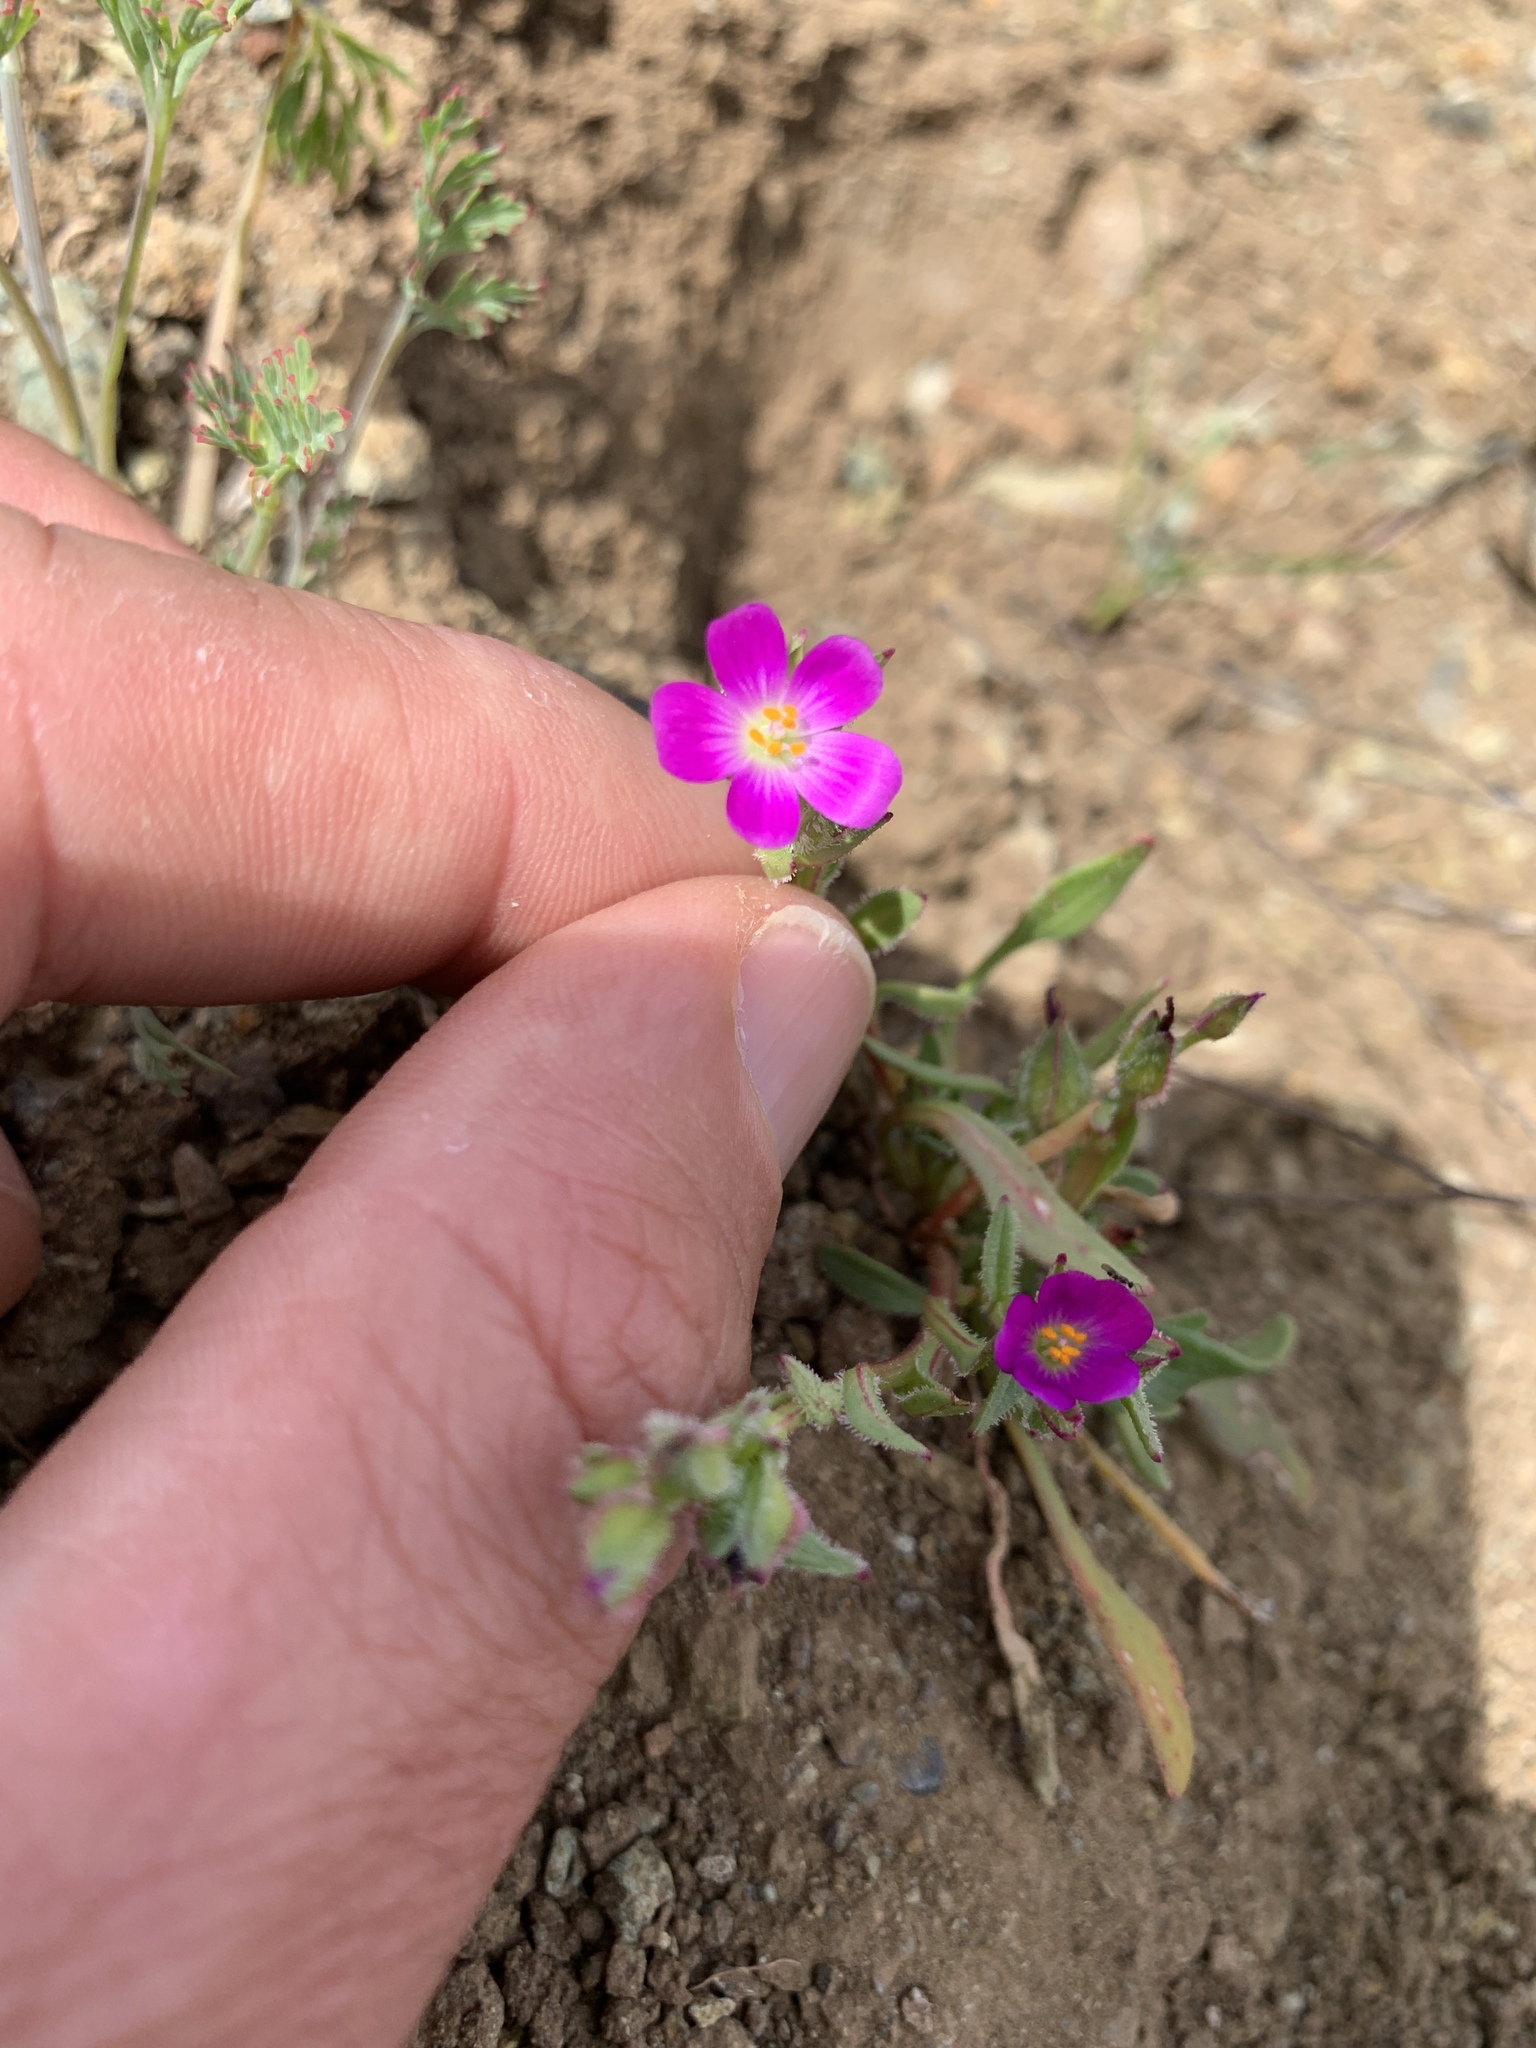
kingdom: Plantae
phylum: Tracheophyta
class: Magnoliopsida
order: Caryophyllales
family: Montiaceae
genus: Calandrinia
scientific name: Calandrinia menziesii
